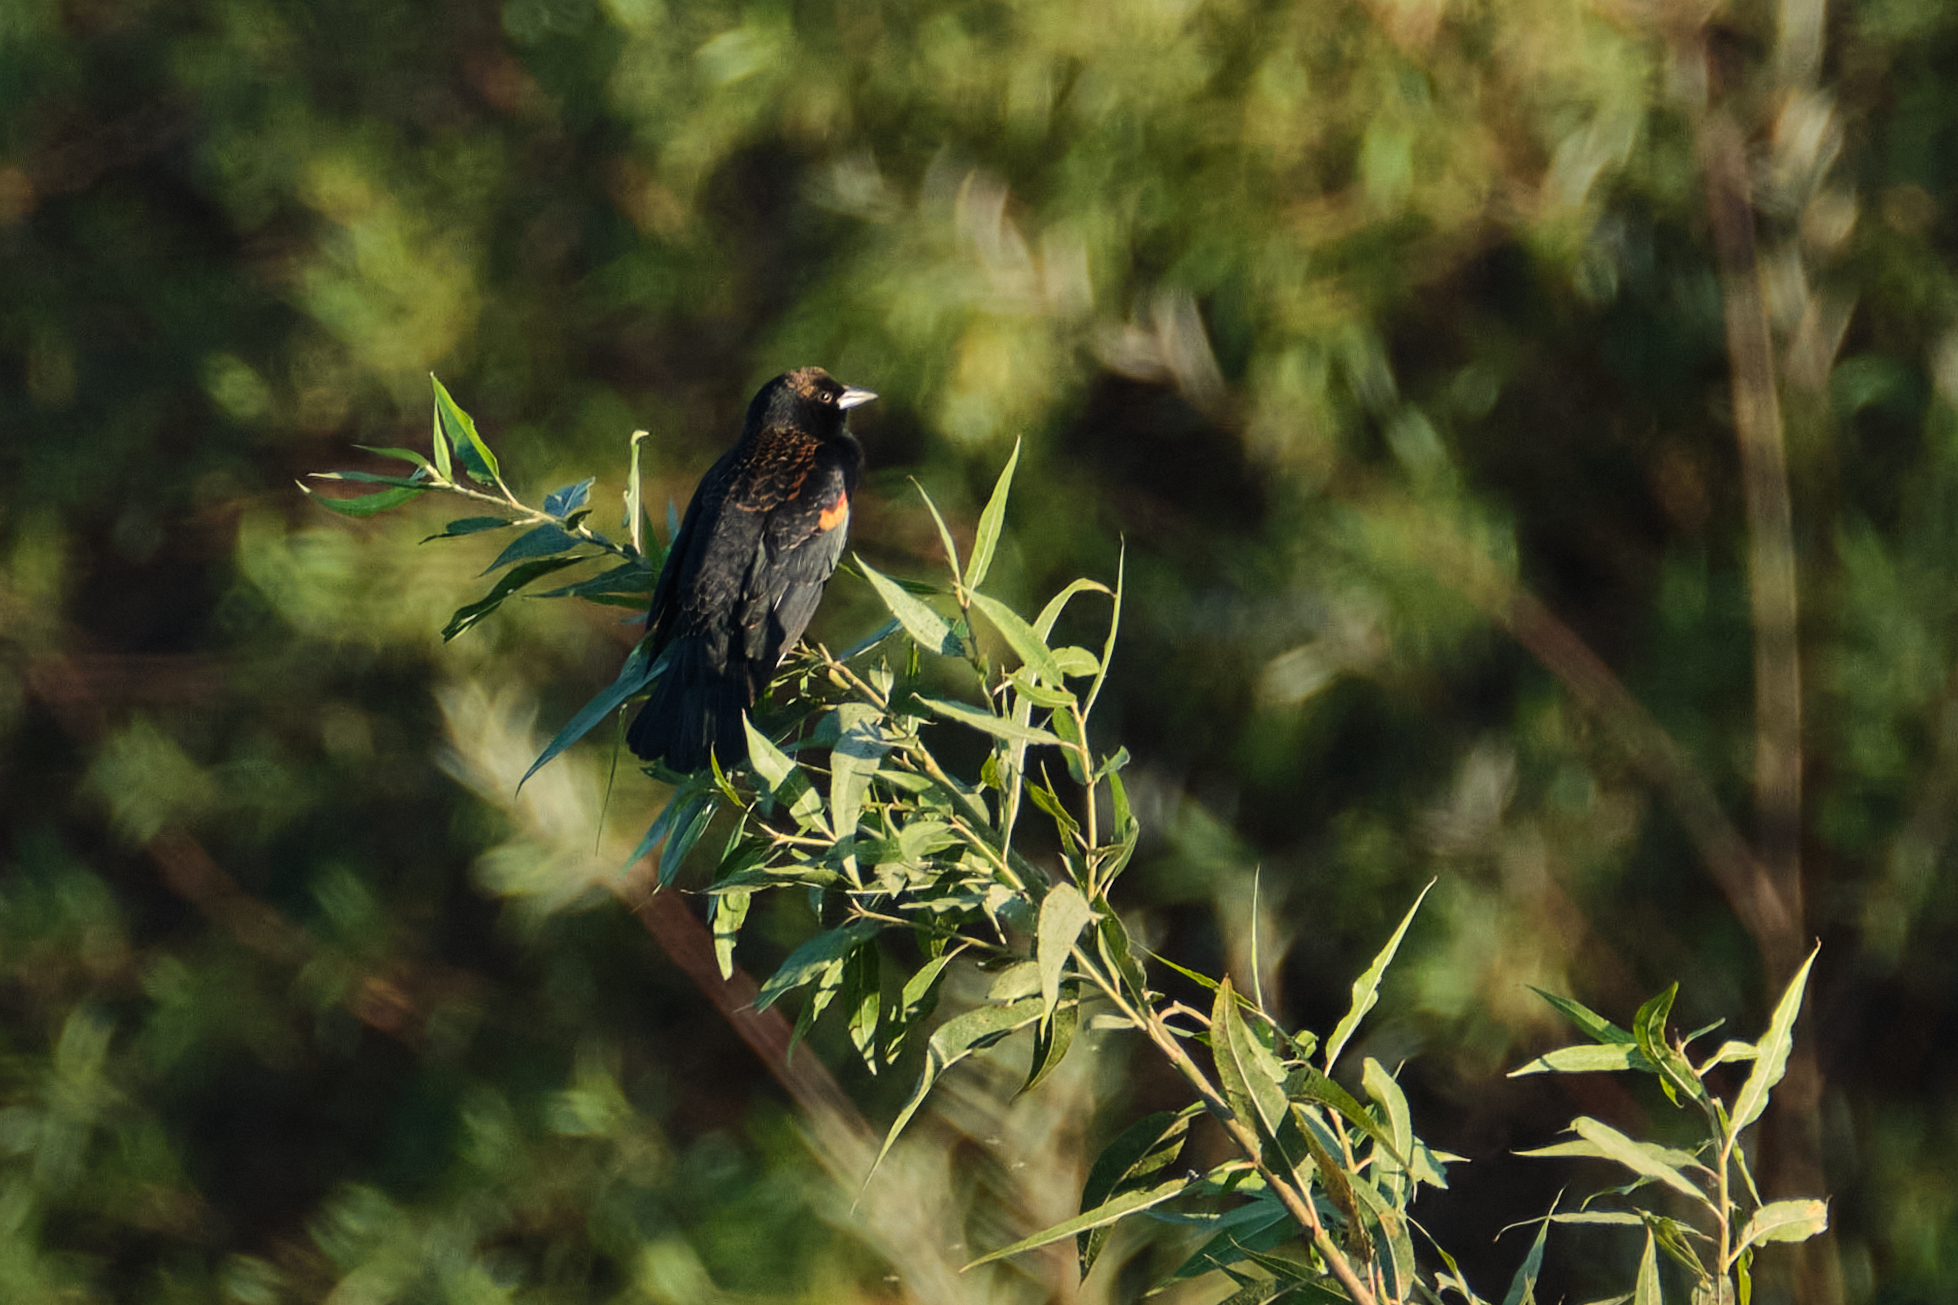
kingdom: Animalia
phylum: Chordata
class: Aves
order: Passeriformes
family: Icteridae
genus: Agelaius
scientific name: Agelaius phoeniceus
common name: Red-winged blackbird
